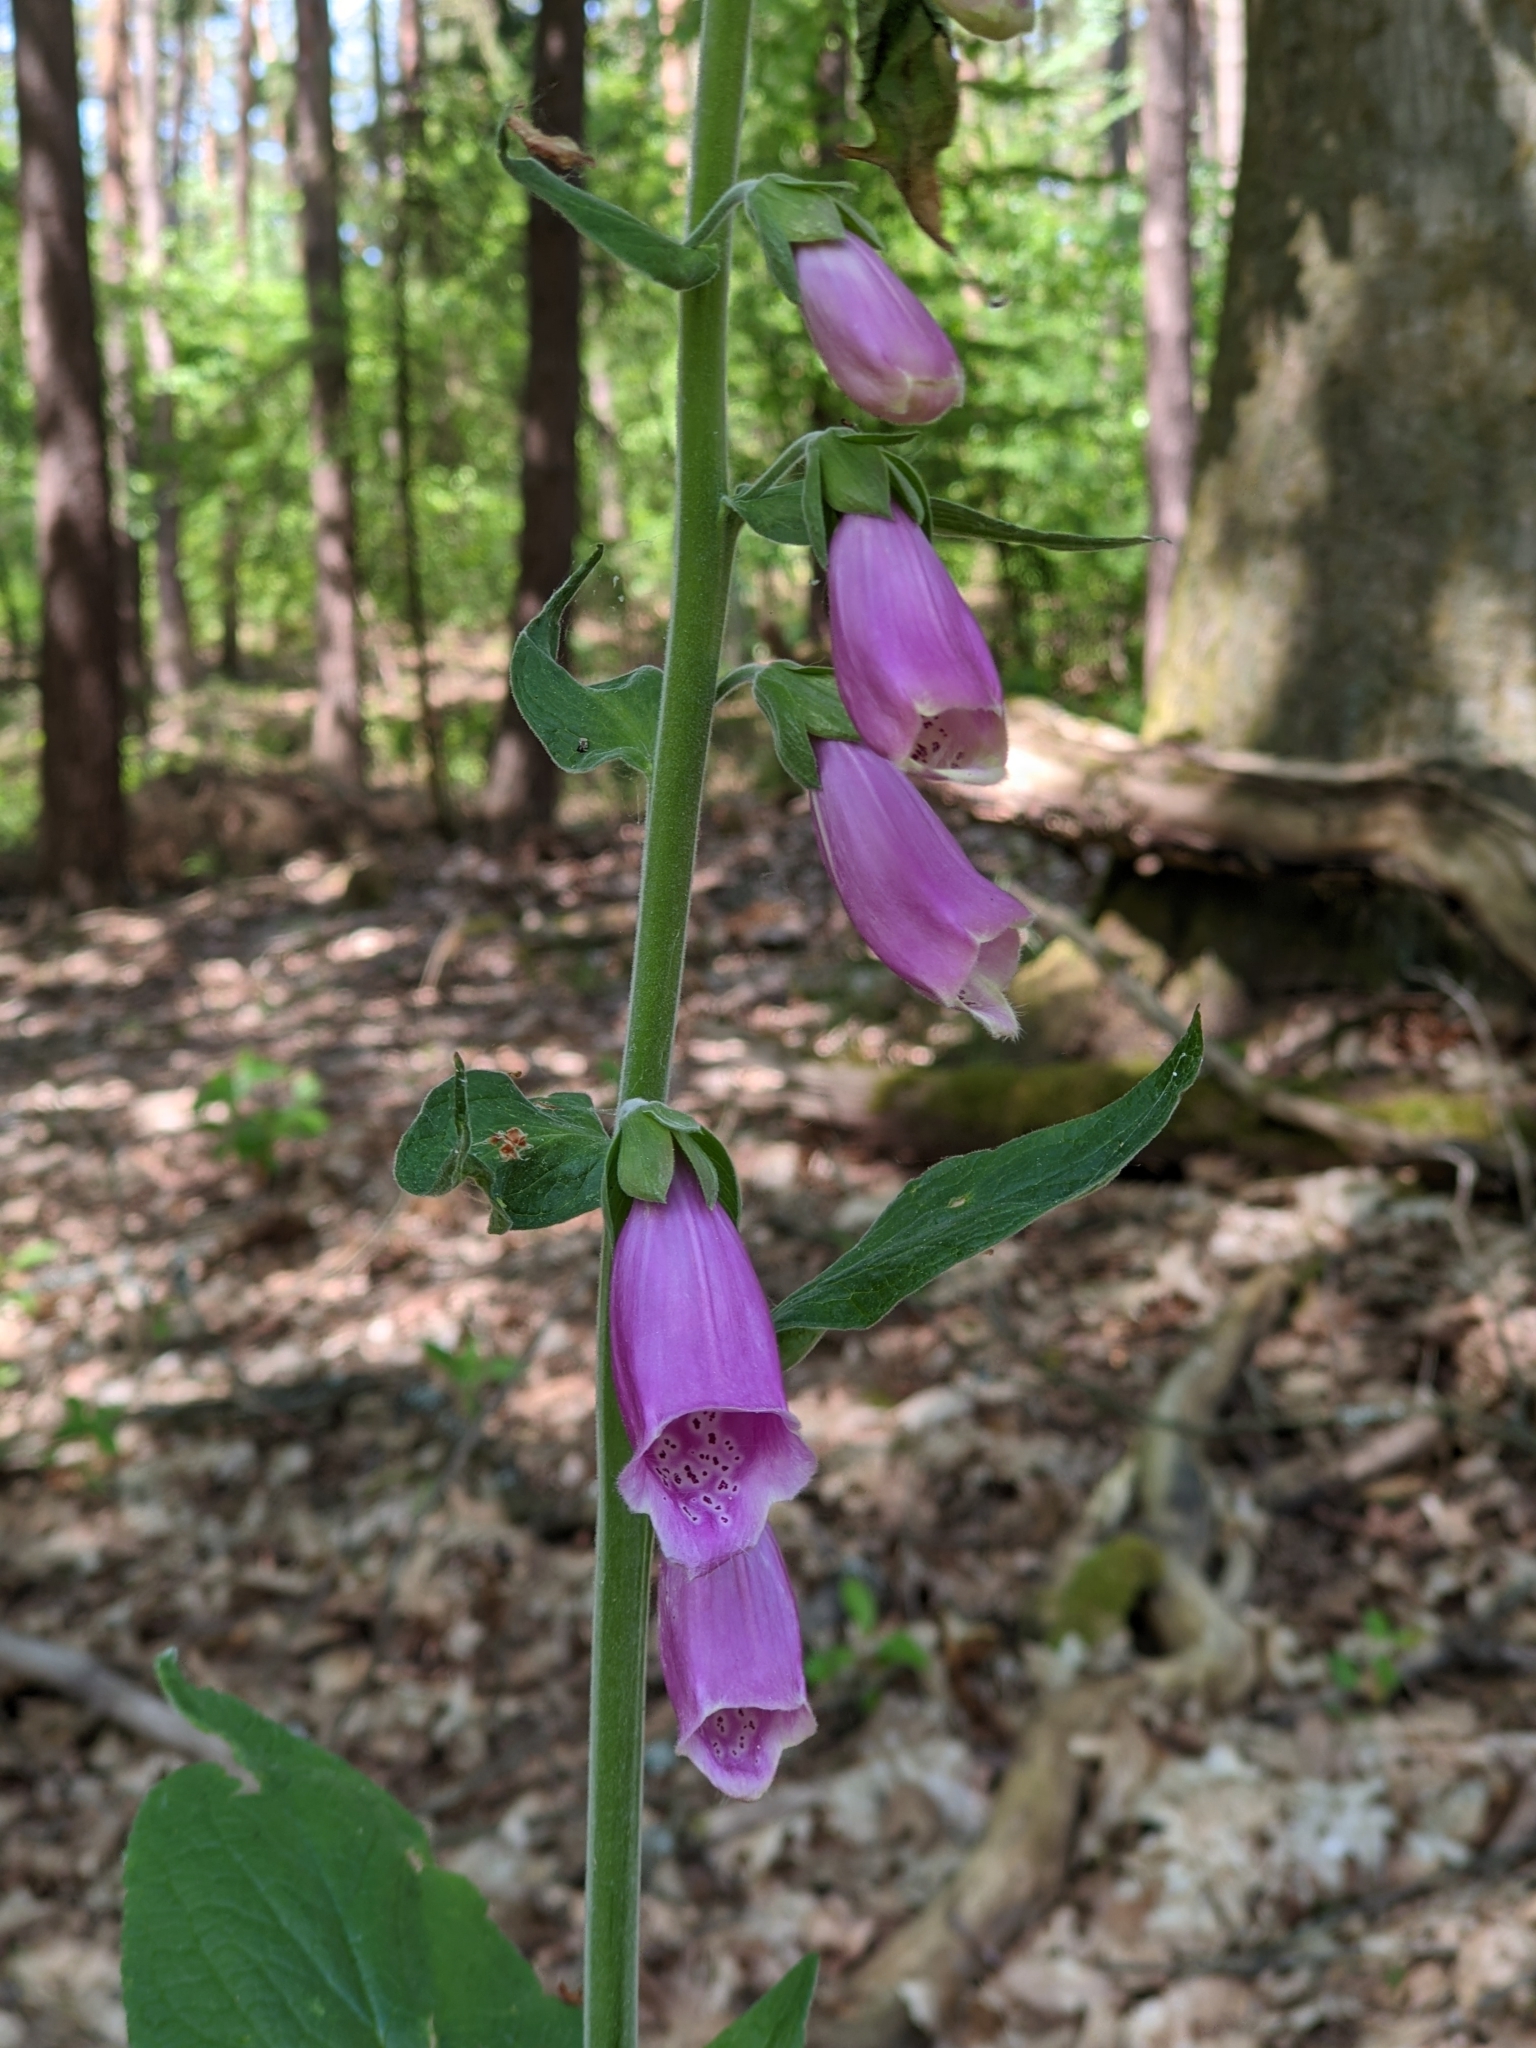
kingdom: Plantae
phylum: Tracheophyta
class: Magnoliopsida
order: Lamiales
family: Plantaginaceae
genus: Digitalis
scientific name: Digitalis purpurea
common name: Foxglove
